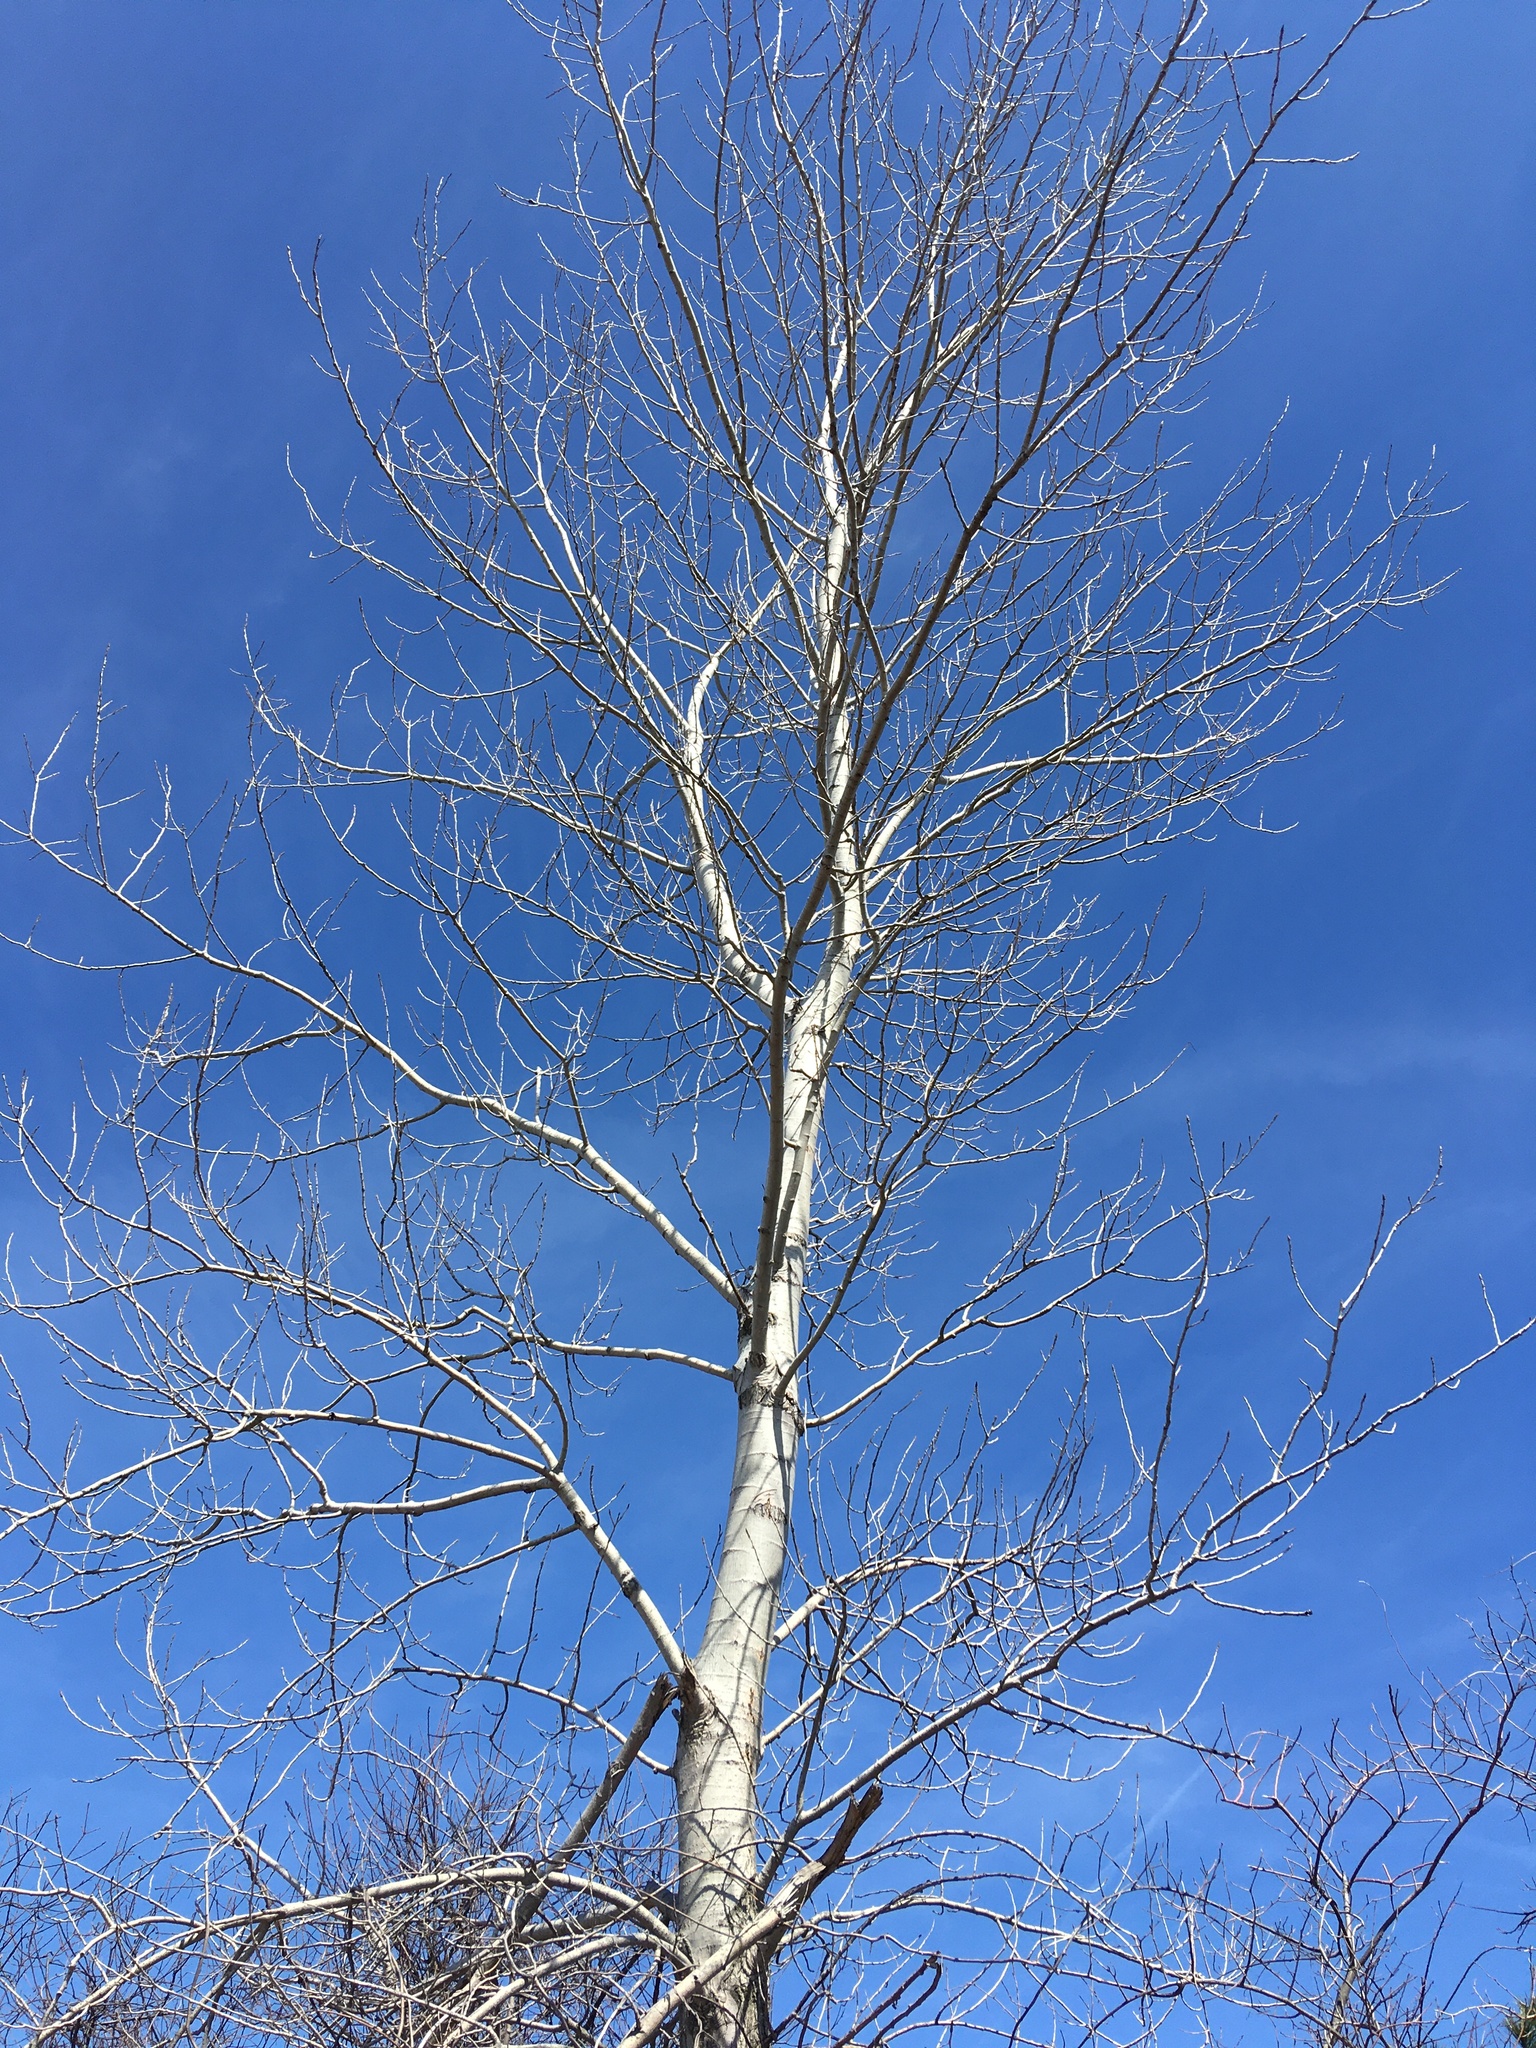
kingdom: Plantae
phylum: Tracheophyta
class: Magnoliopsida
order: Malpighiales
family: Salicaceae
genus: Populus
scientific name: Populus deltoides
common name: Eastern cottonwood
